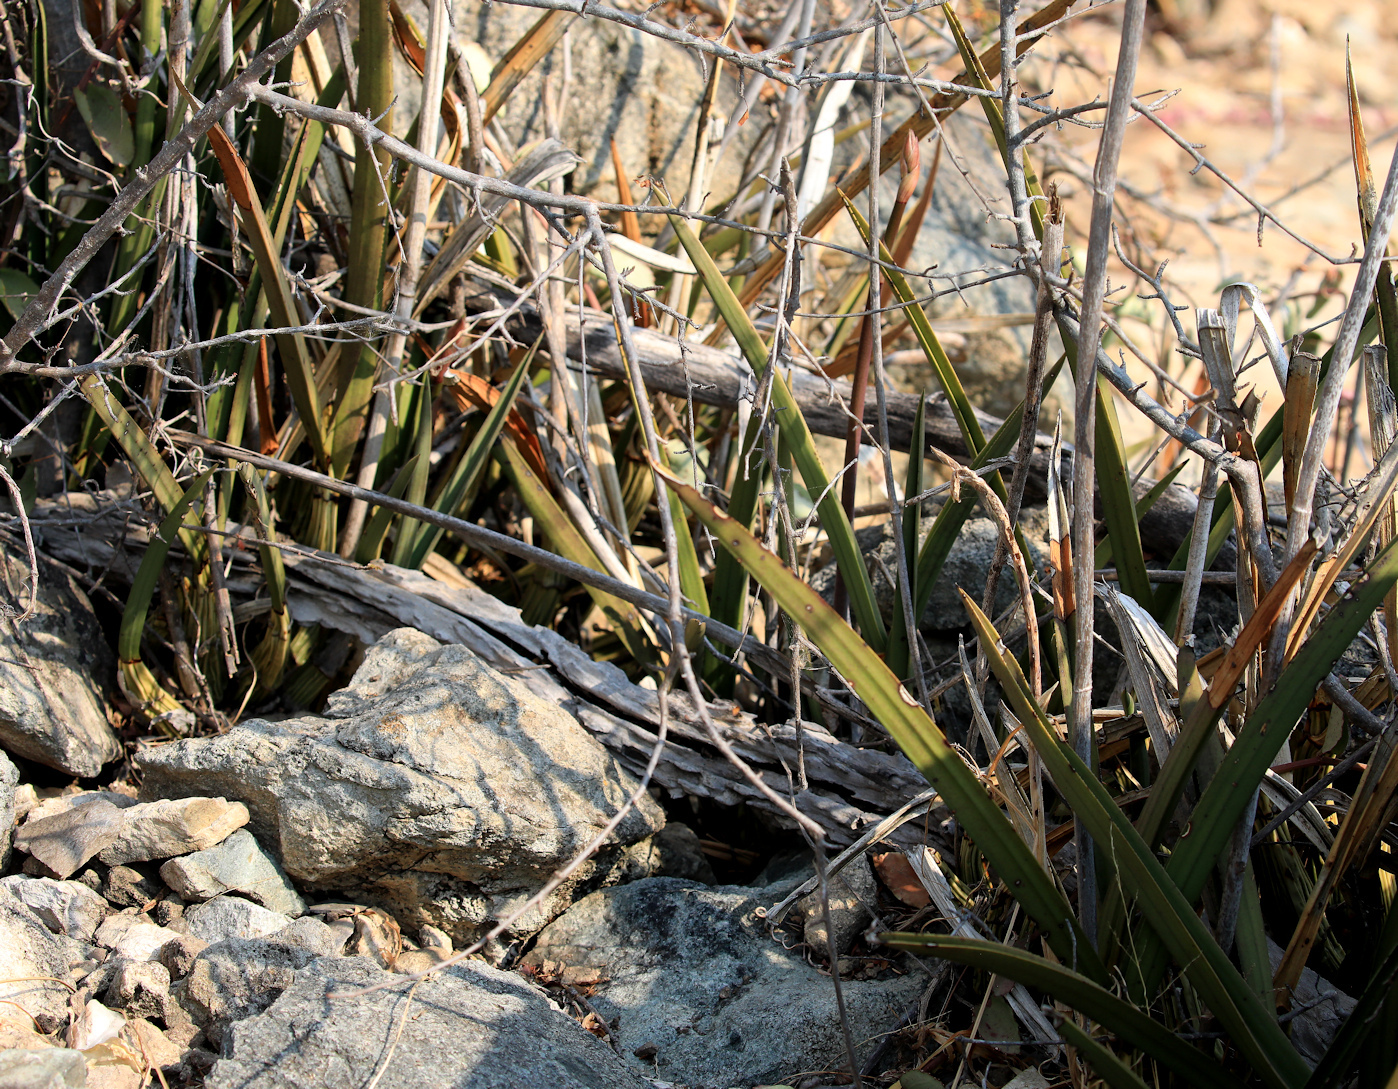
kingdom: Plantae
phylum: Tracheophyta
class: Liliopsida
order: Asparagales
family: Orchidaceae
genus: Eulophia
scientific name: Eulophia petersii
